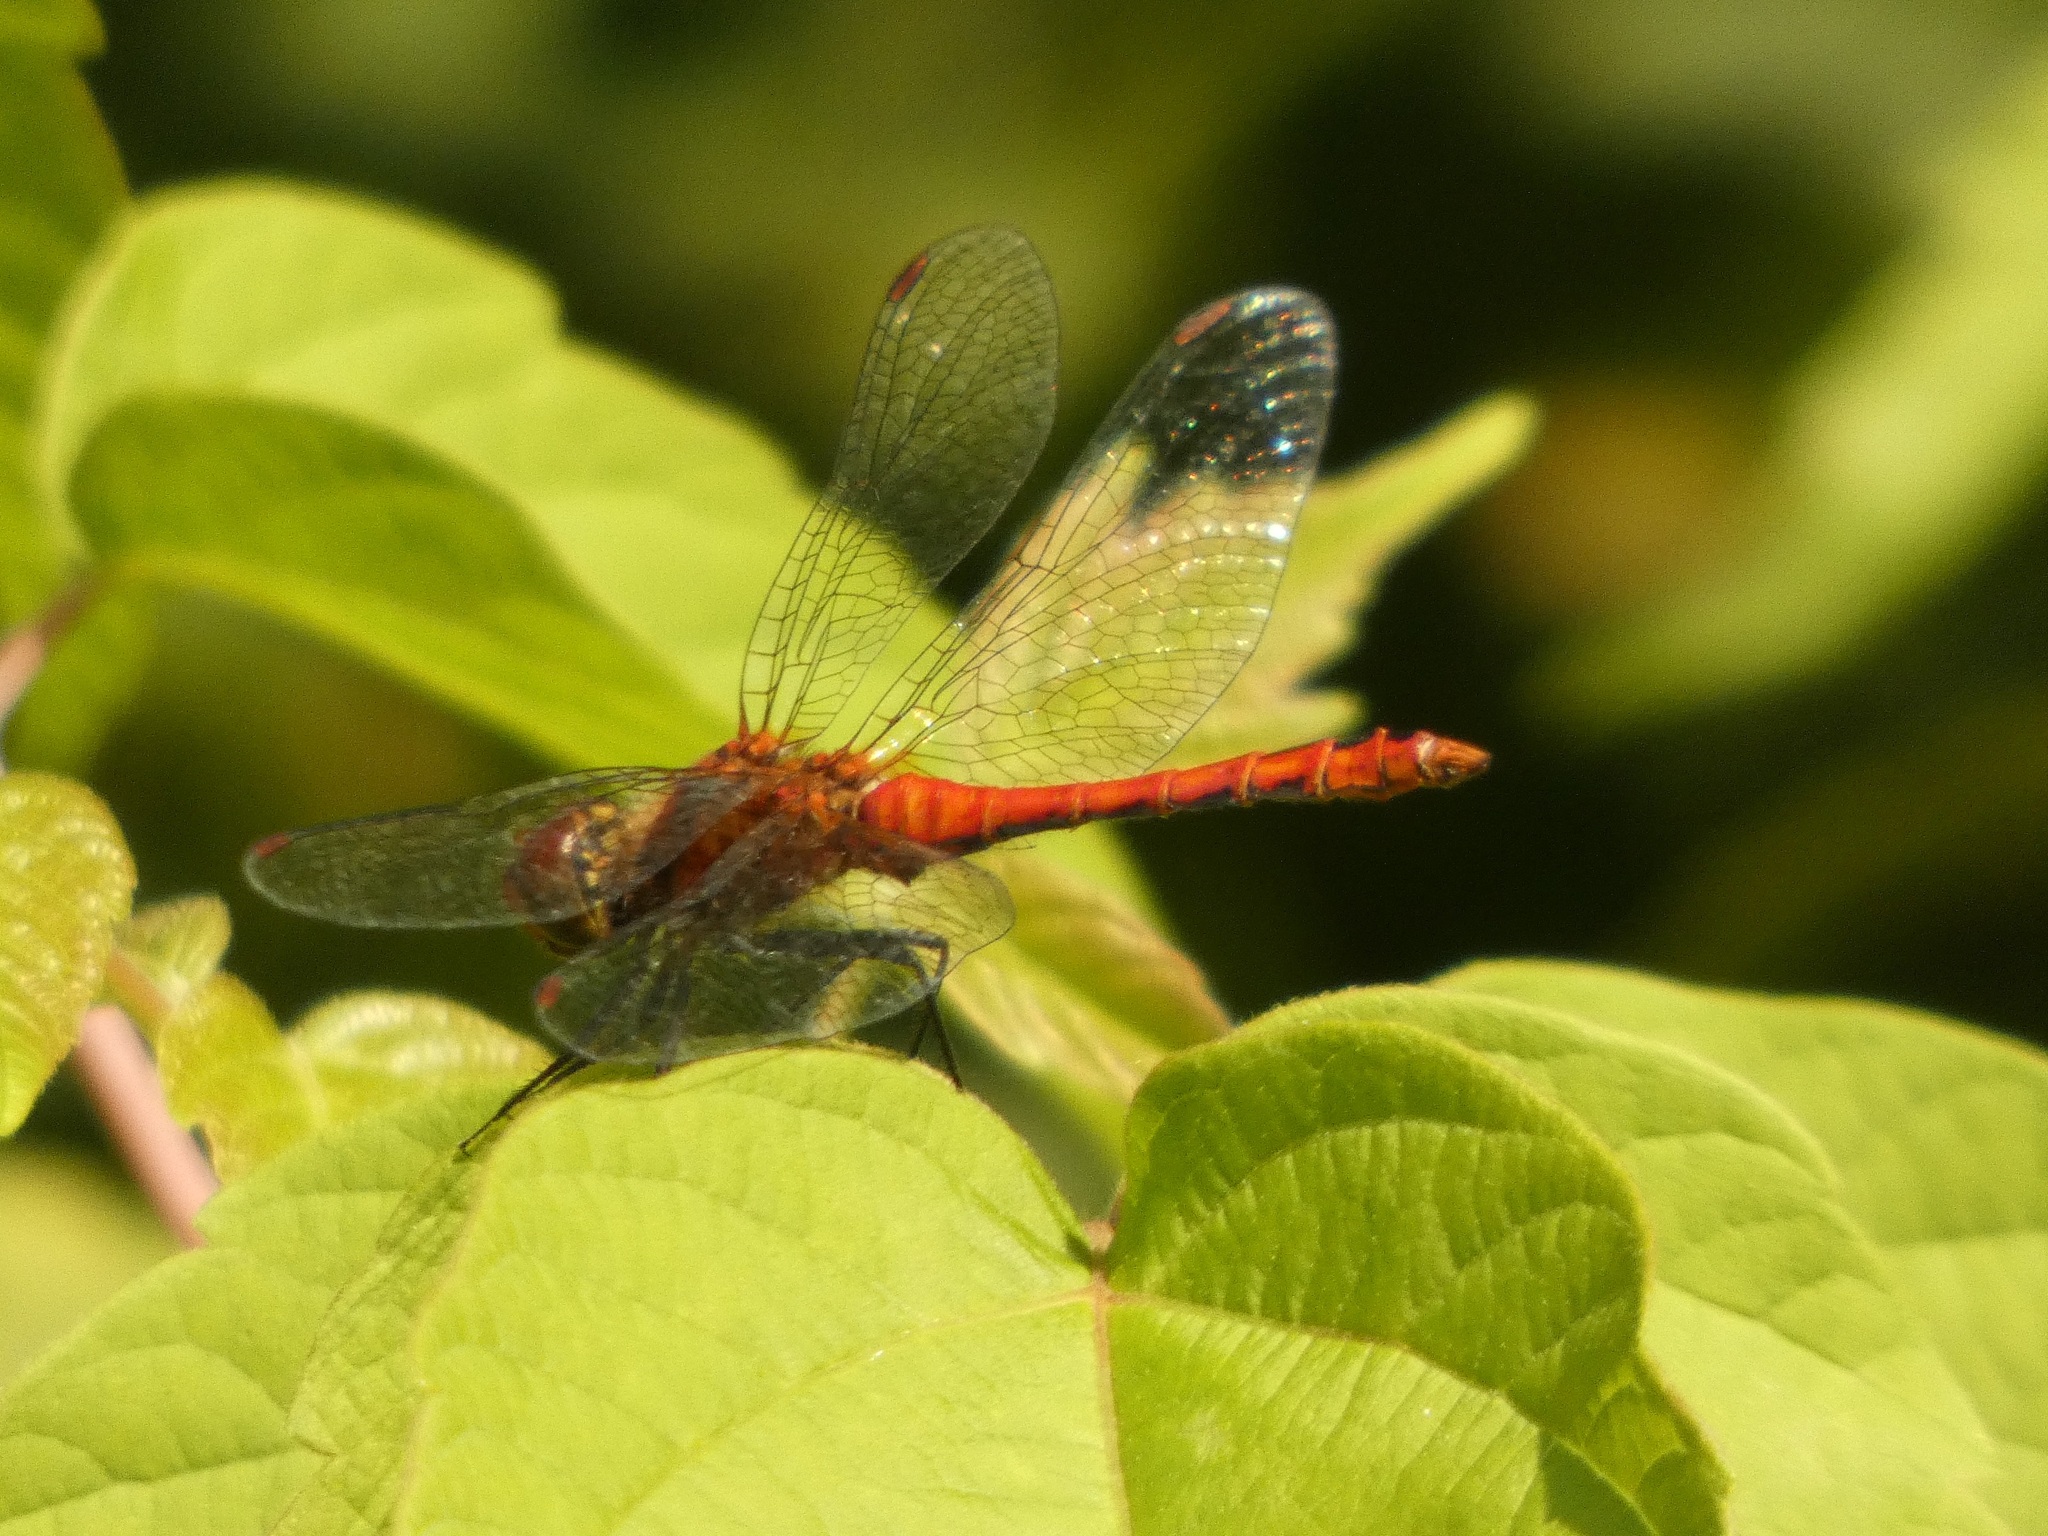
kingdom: Animalia
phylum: Arthropoda
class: Insecta
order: Odonata
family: Libellulidae
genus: Sympetrum
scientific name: Sympetrum sanguineum
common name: Ruddy darter
